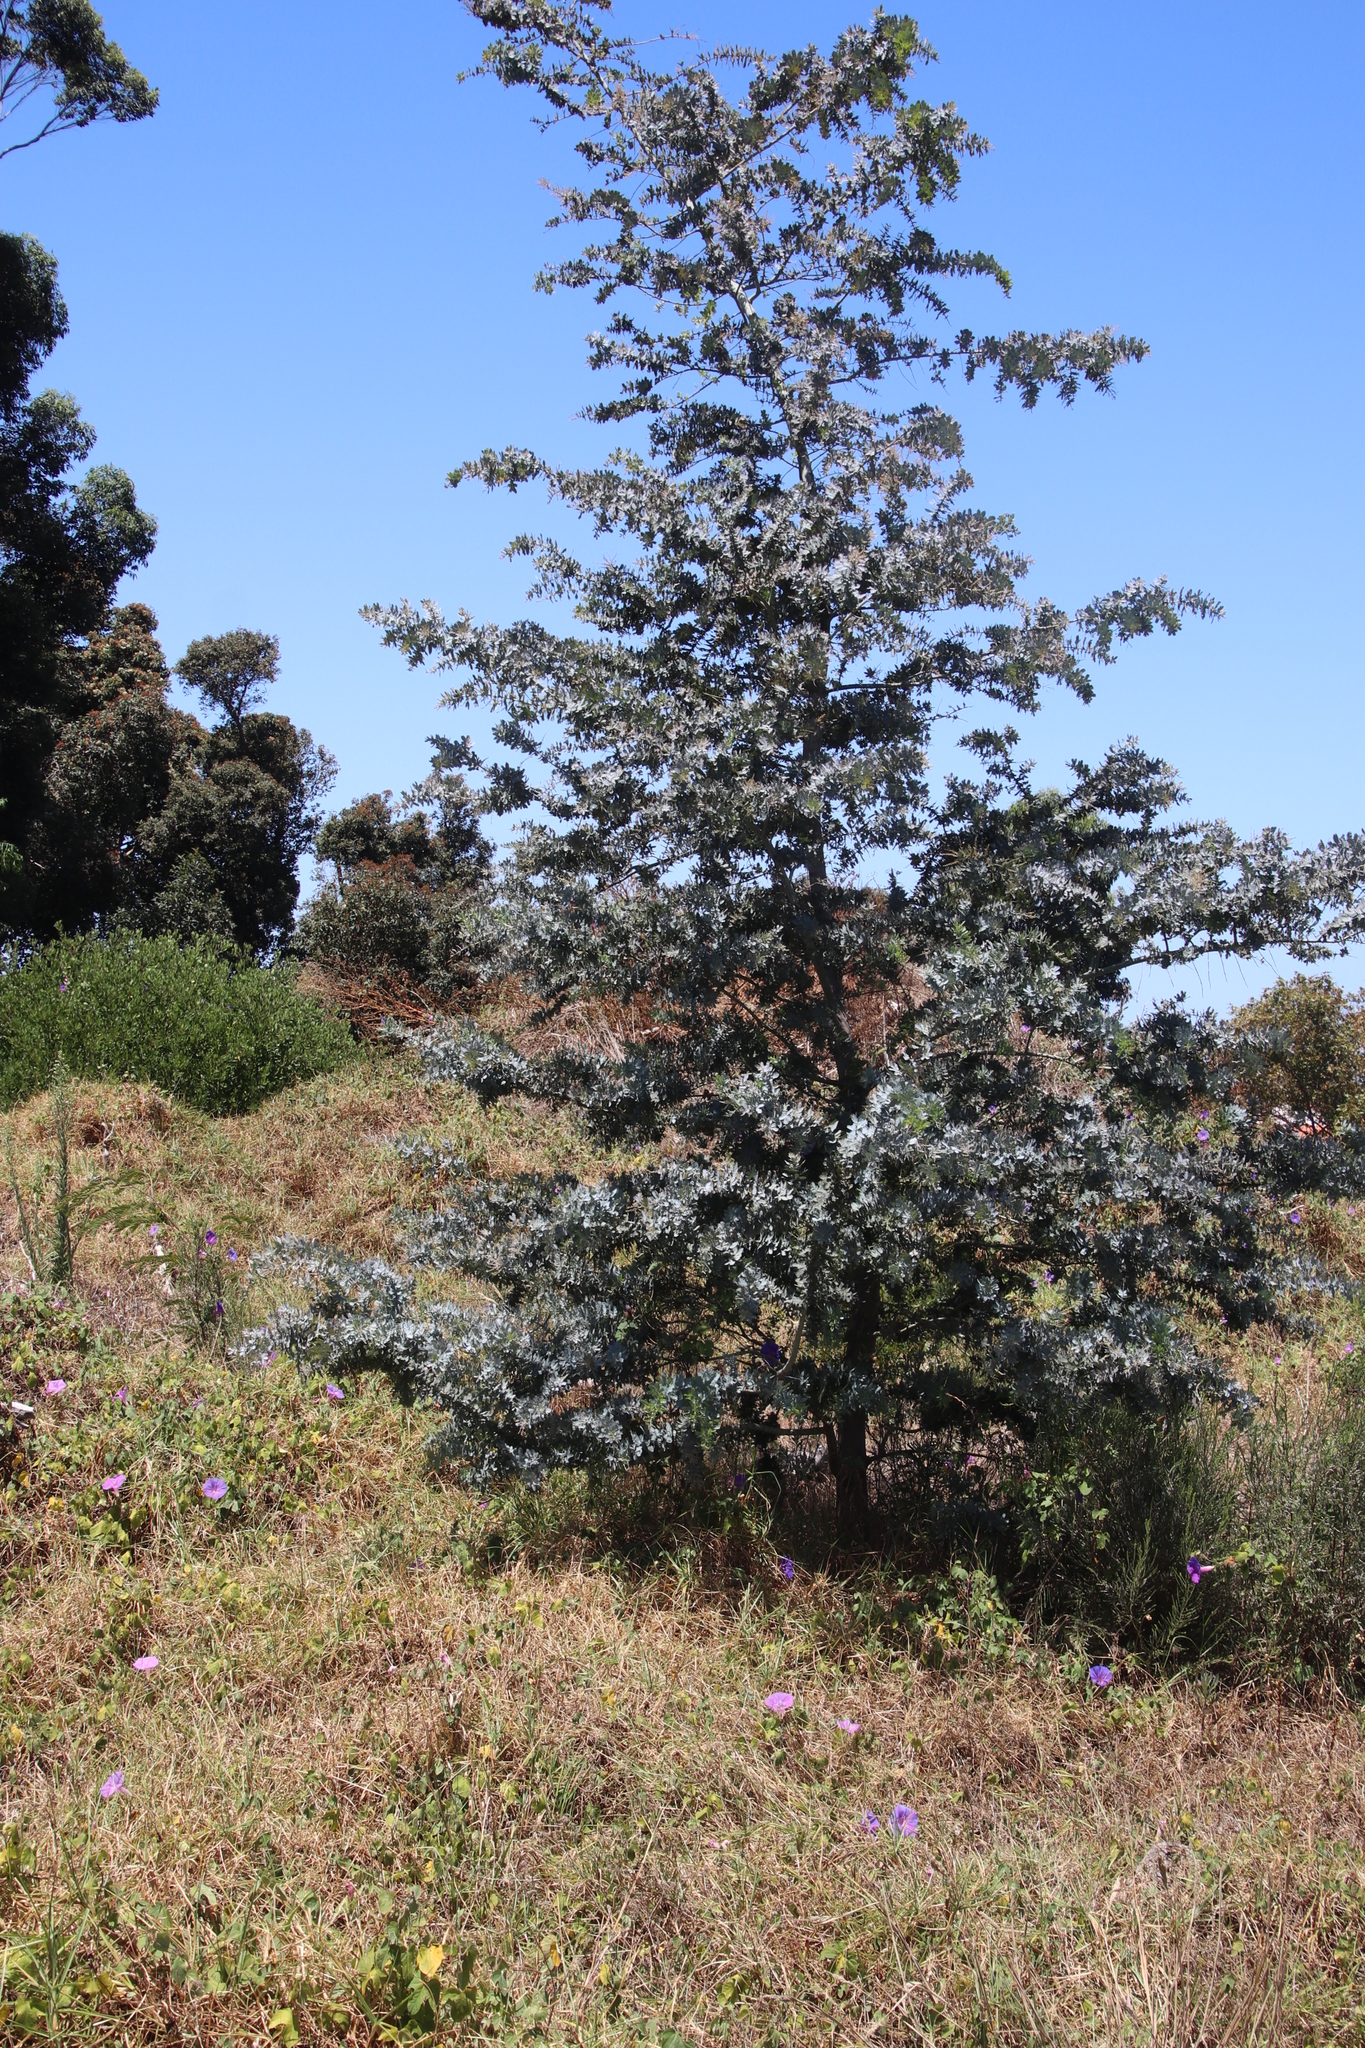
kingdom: Plantae
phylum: Tracheophyta
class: Magnoliopsida
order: Fabales
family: Fabaceae
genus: Acacia
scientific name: Acacia baileyana
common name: Cootamundra wattle
